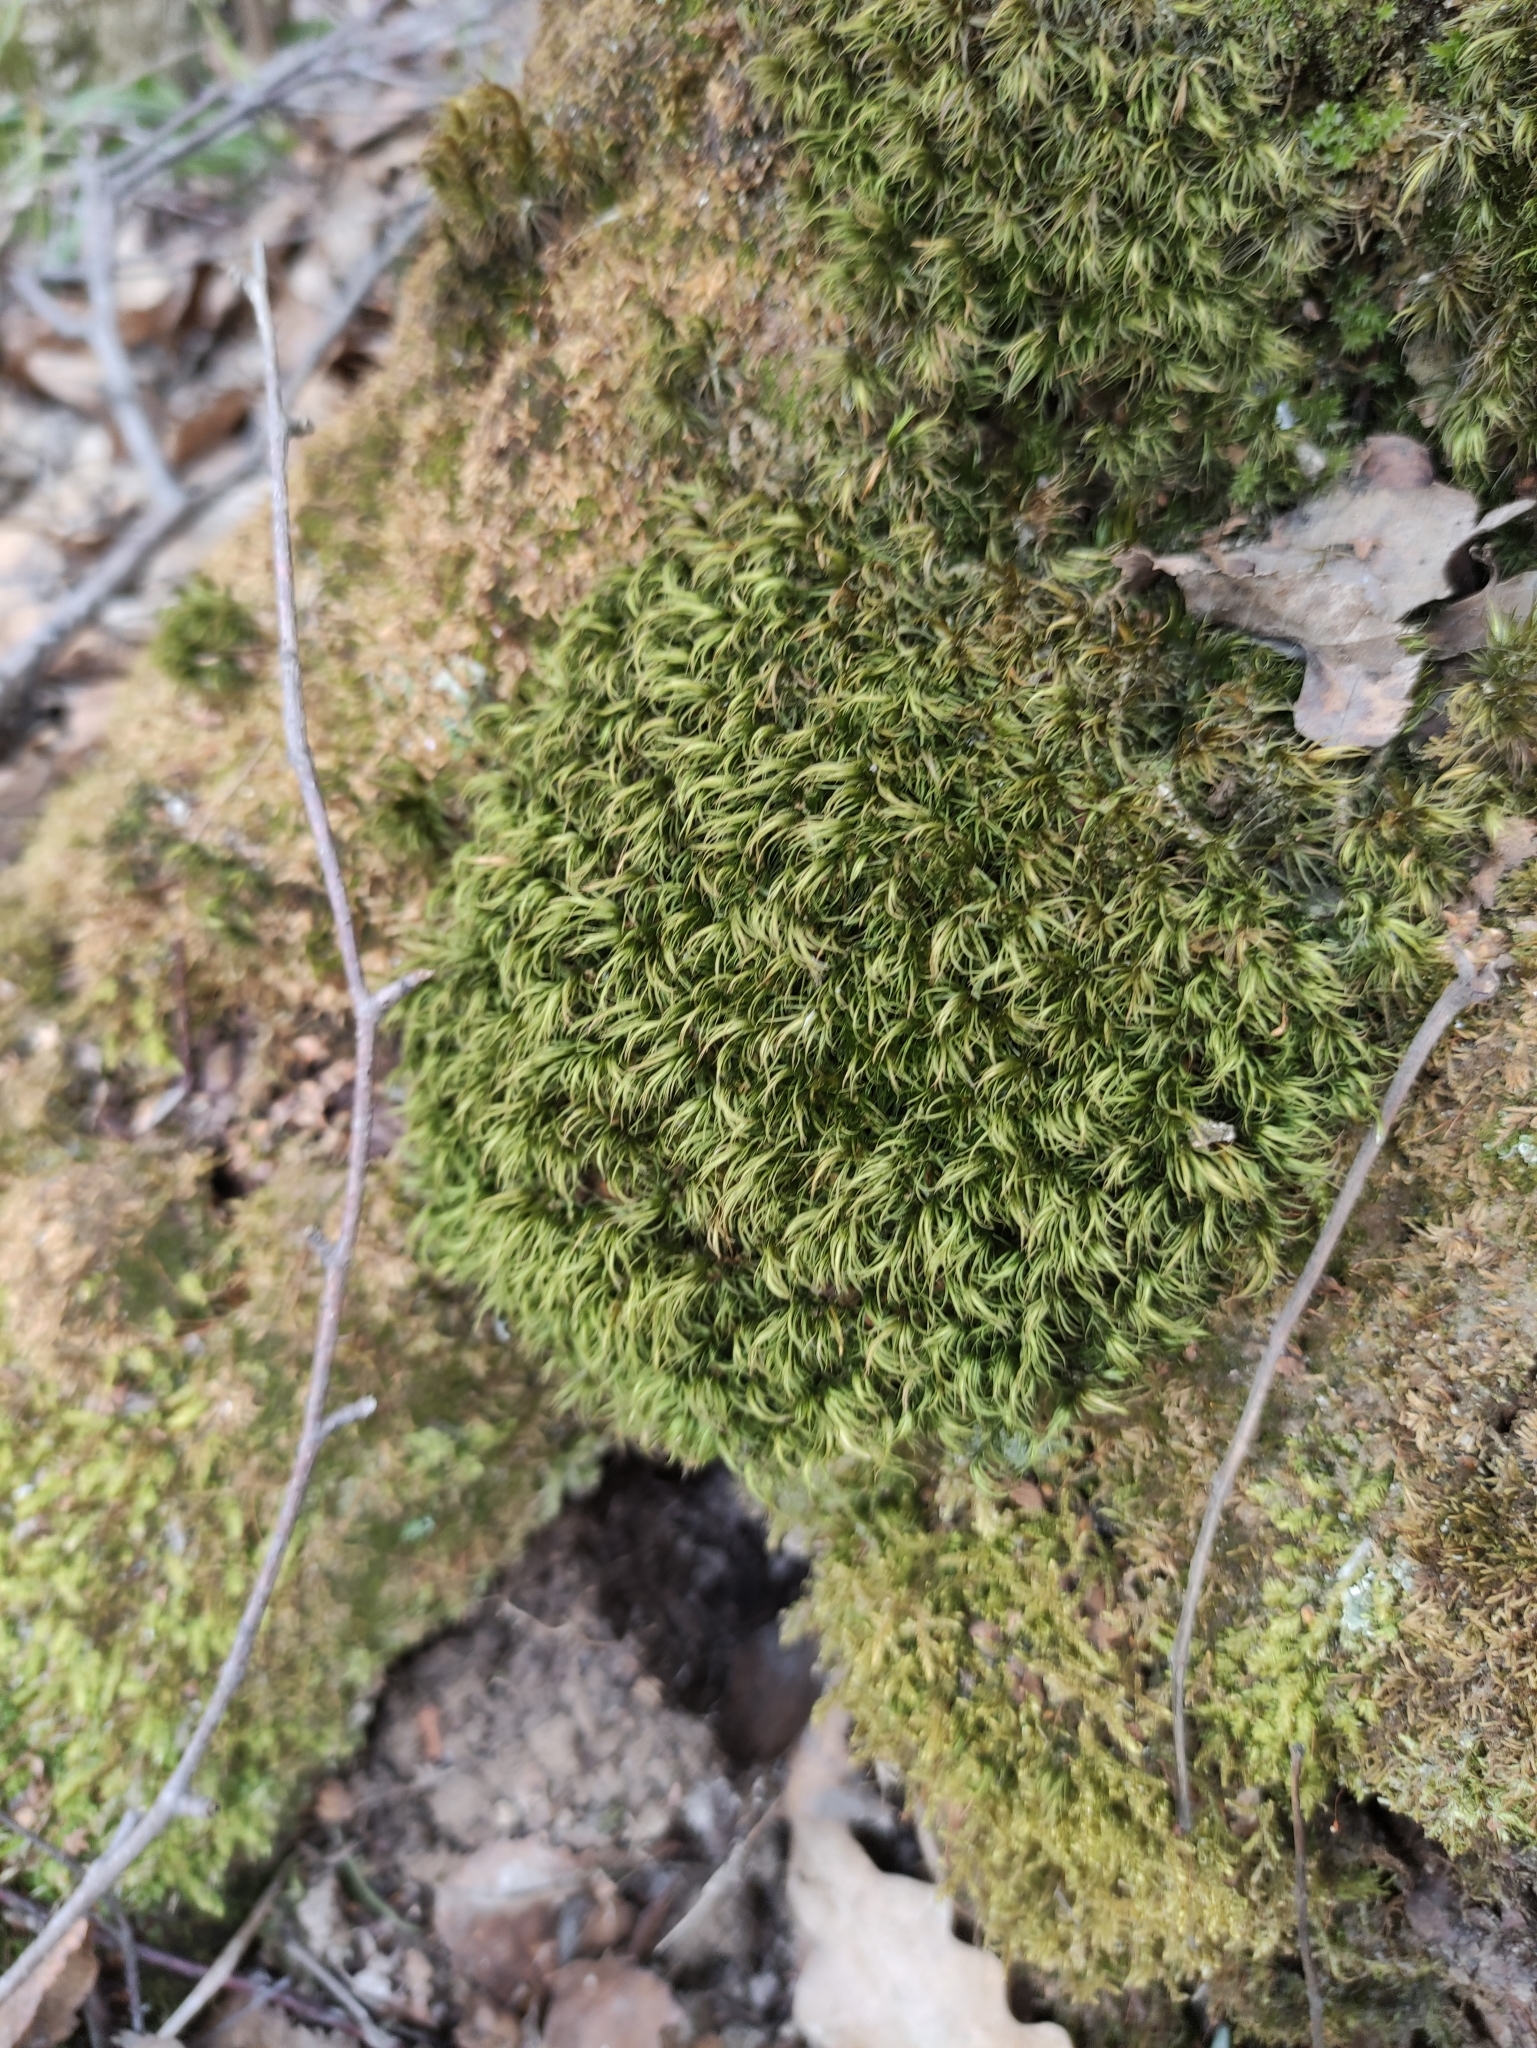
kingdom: Plantae
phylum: Bryophyta
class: Bryopsida
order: Dicranales
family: Dicranaceae
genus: Dicranum
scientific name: Dicranum scoparium
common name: Broom fork-moss
